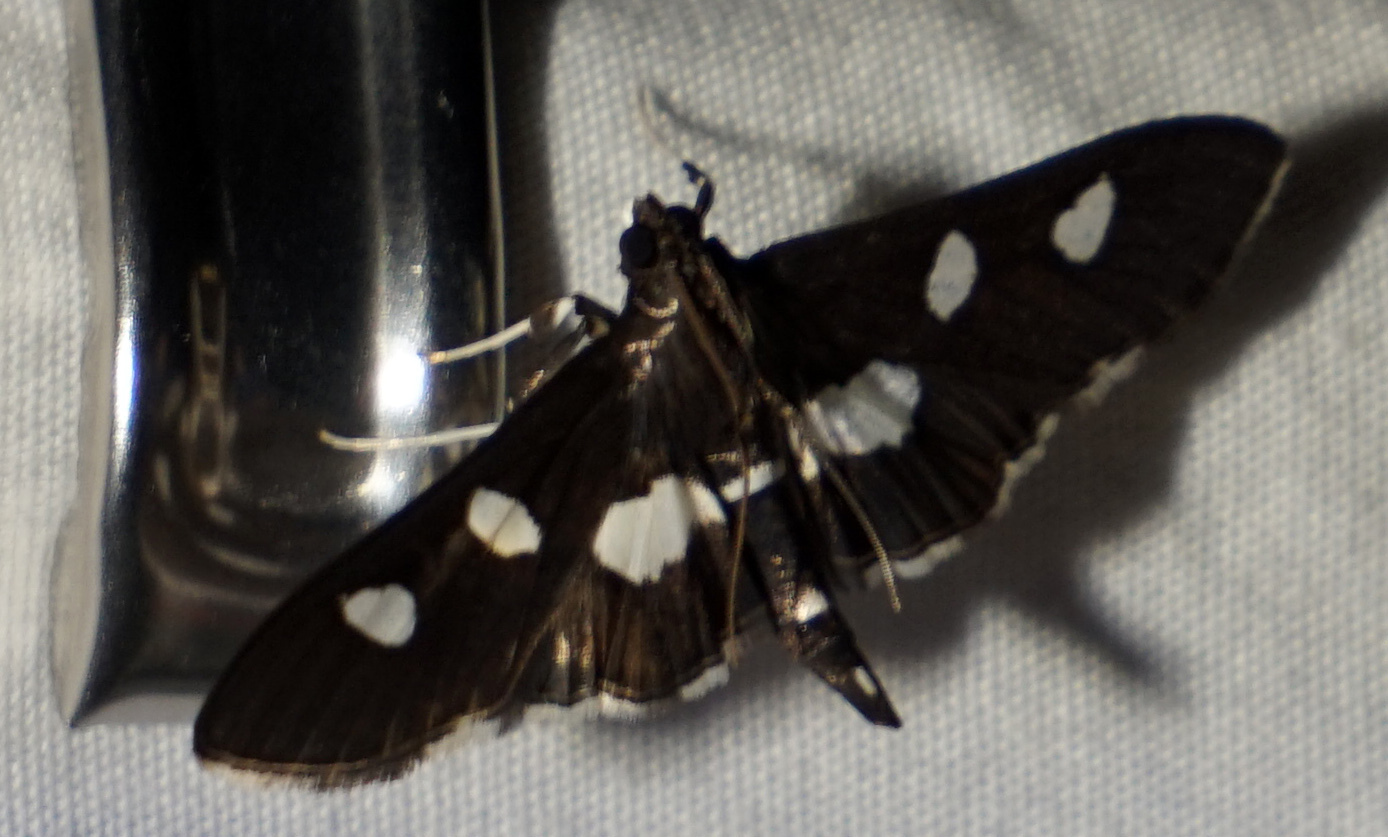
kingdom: Animalia
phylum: Arthropoda
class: Insecta
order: Lepidoptera
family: Crambidae
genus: Desmia
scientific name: Desmia
